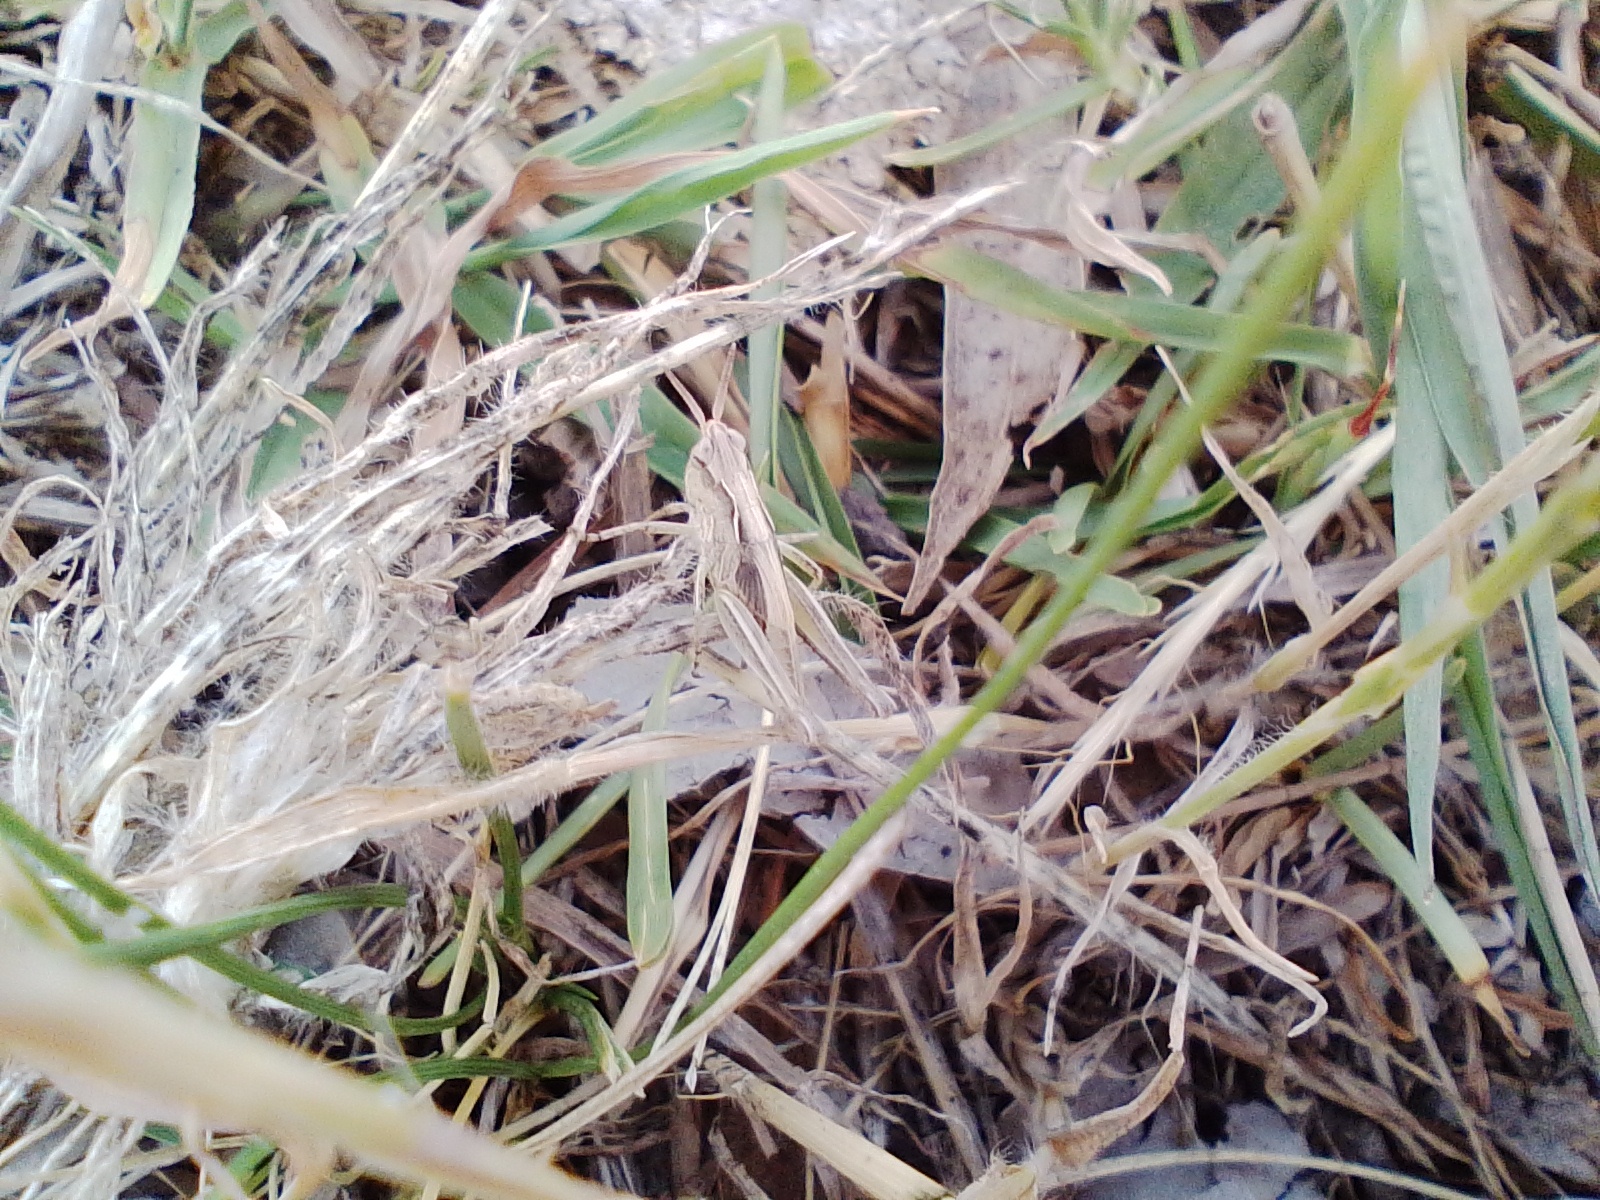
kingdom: Animalia
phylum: Arthropoda
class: Insecta
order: Orthoptera
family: Acrididae
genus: Orphulella
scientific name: Orphulella punctata
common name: Slant-faced grasshopper
